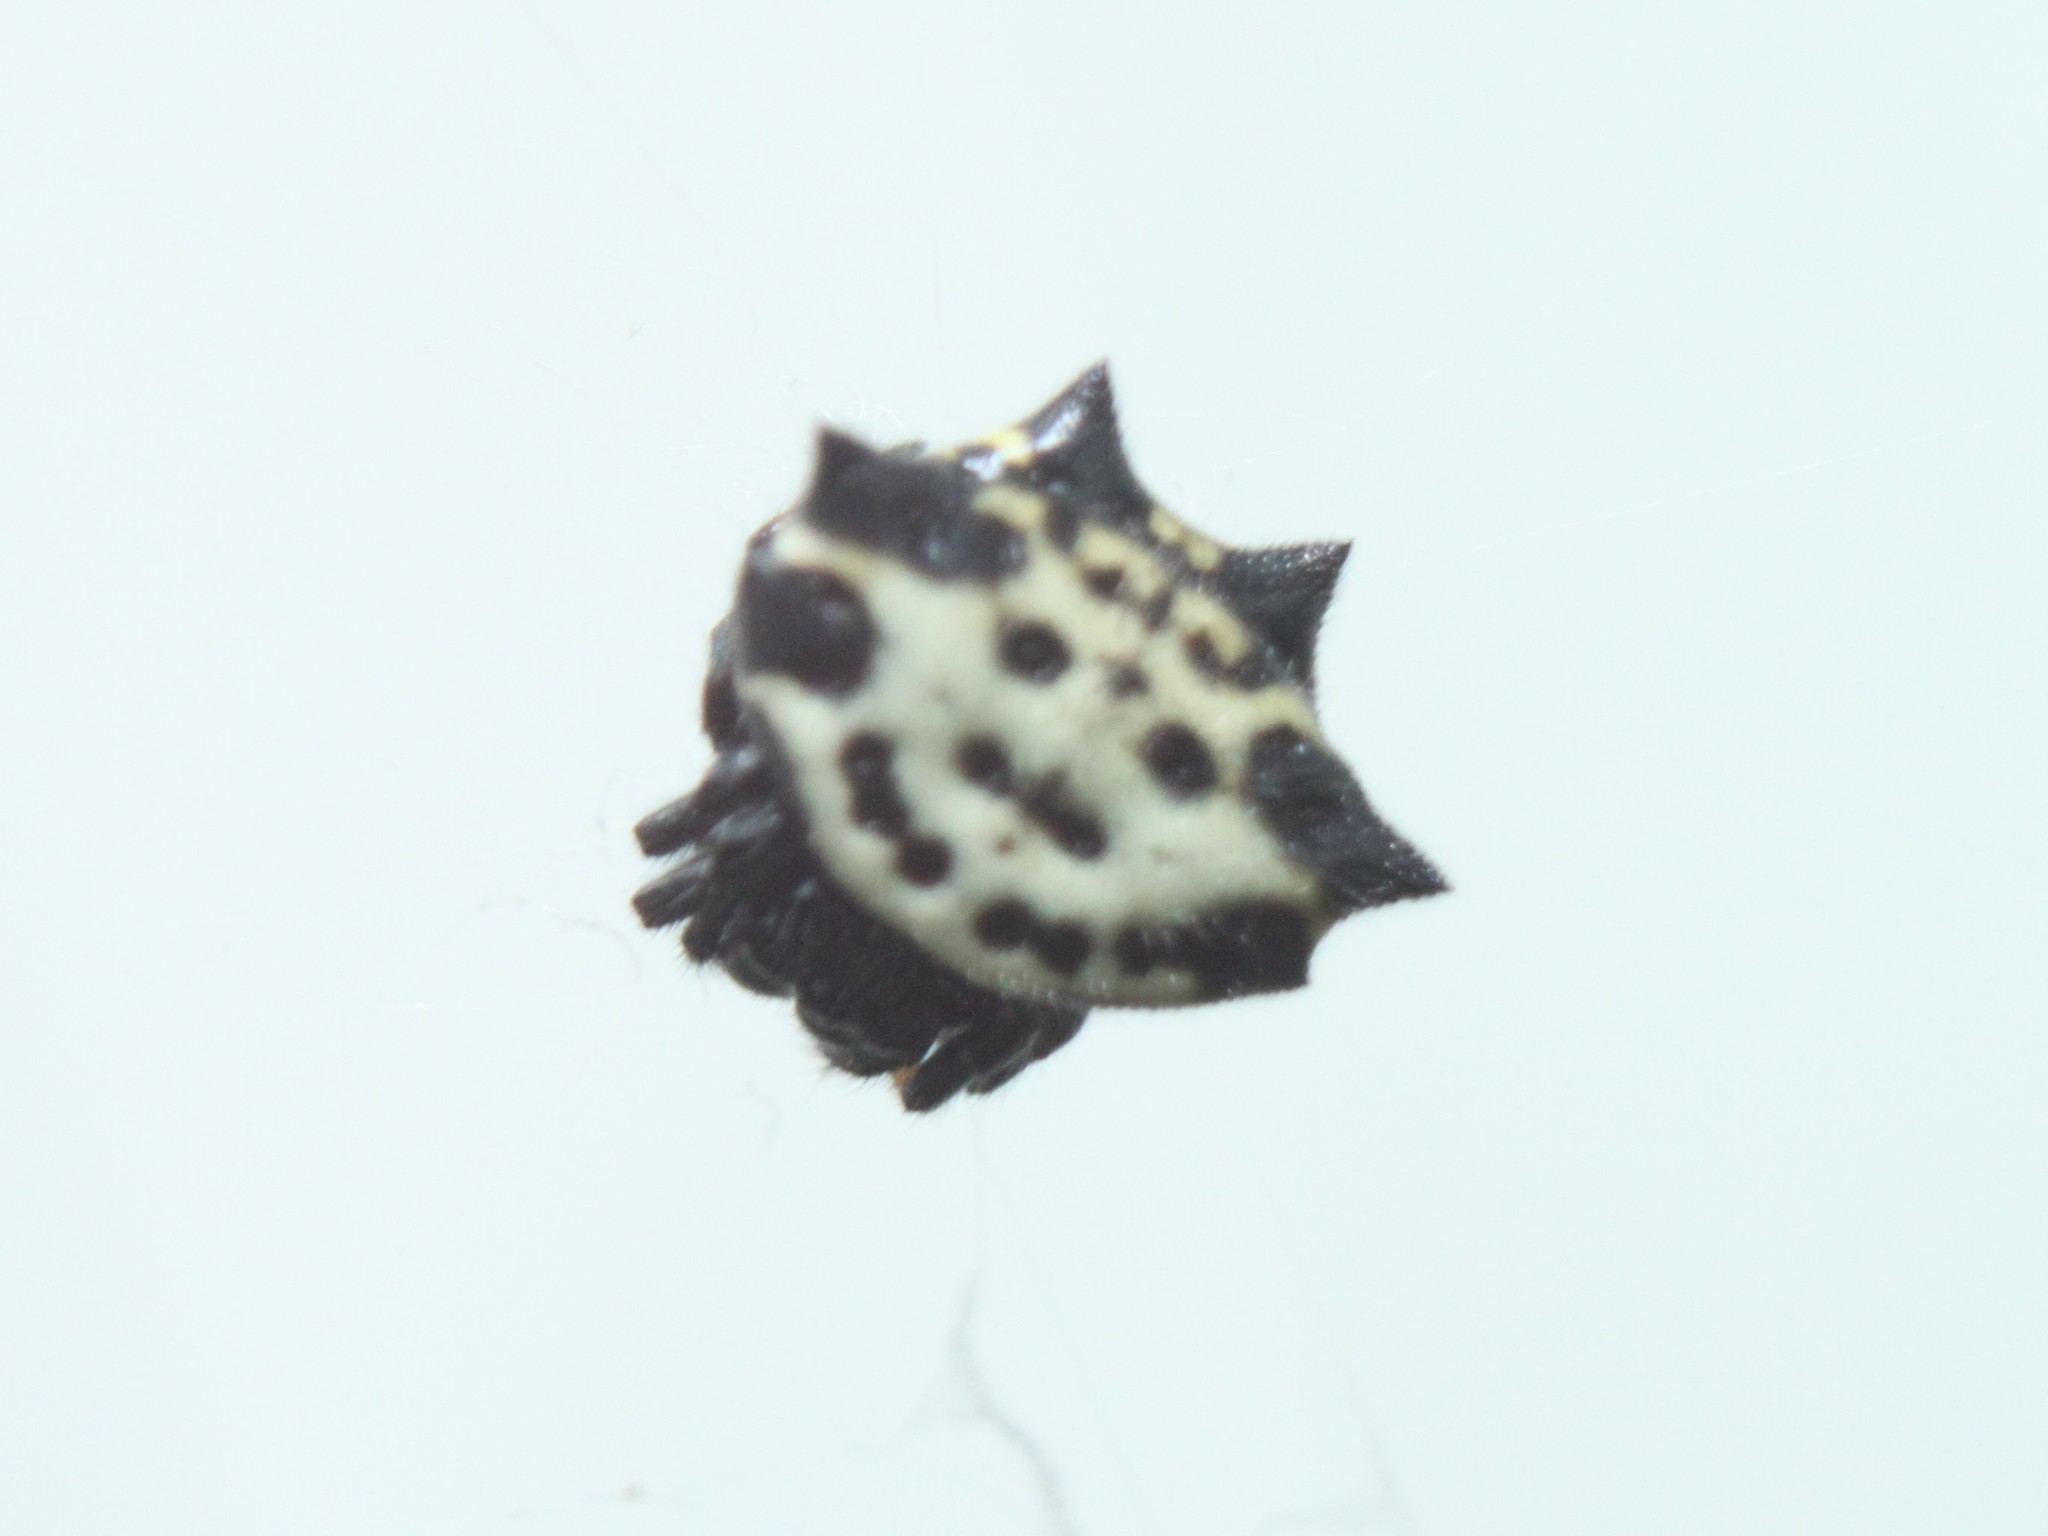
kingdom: Animalia
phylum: Arthropoda
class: Arachnida
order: Araneae
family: Araneidae
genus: Gasteracantha
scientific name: Gasteracantha cancriformis
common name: Orb weavers
